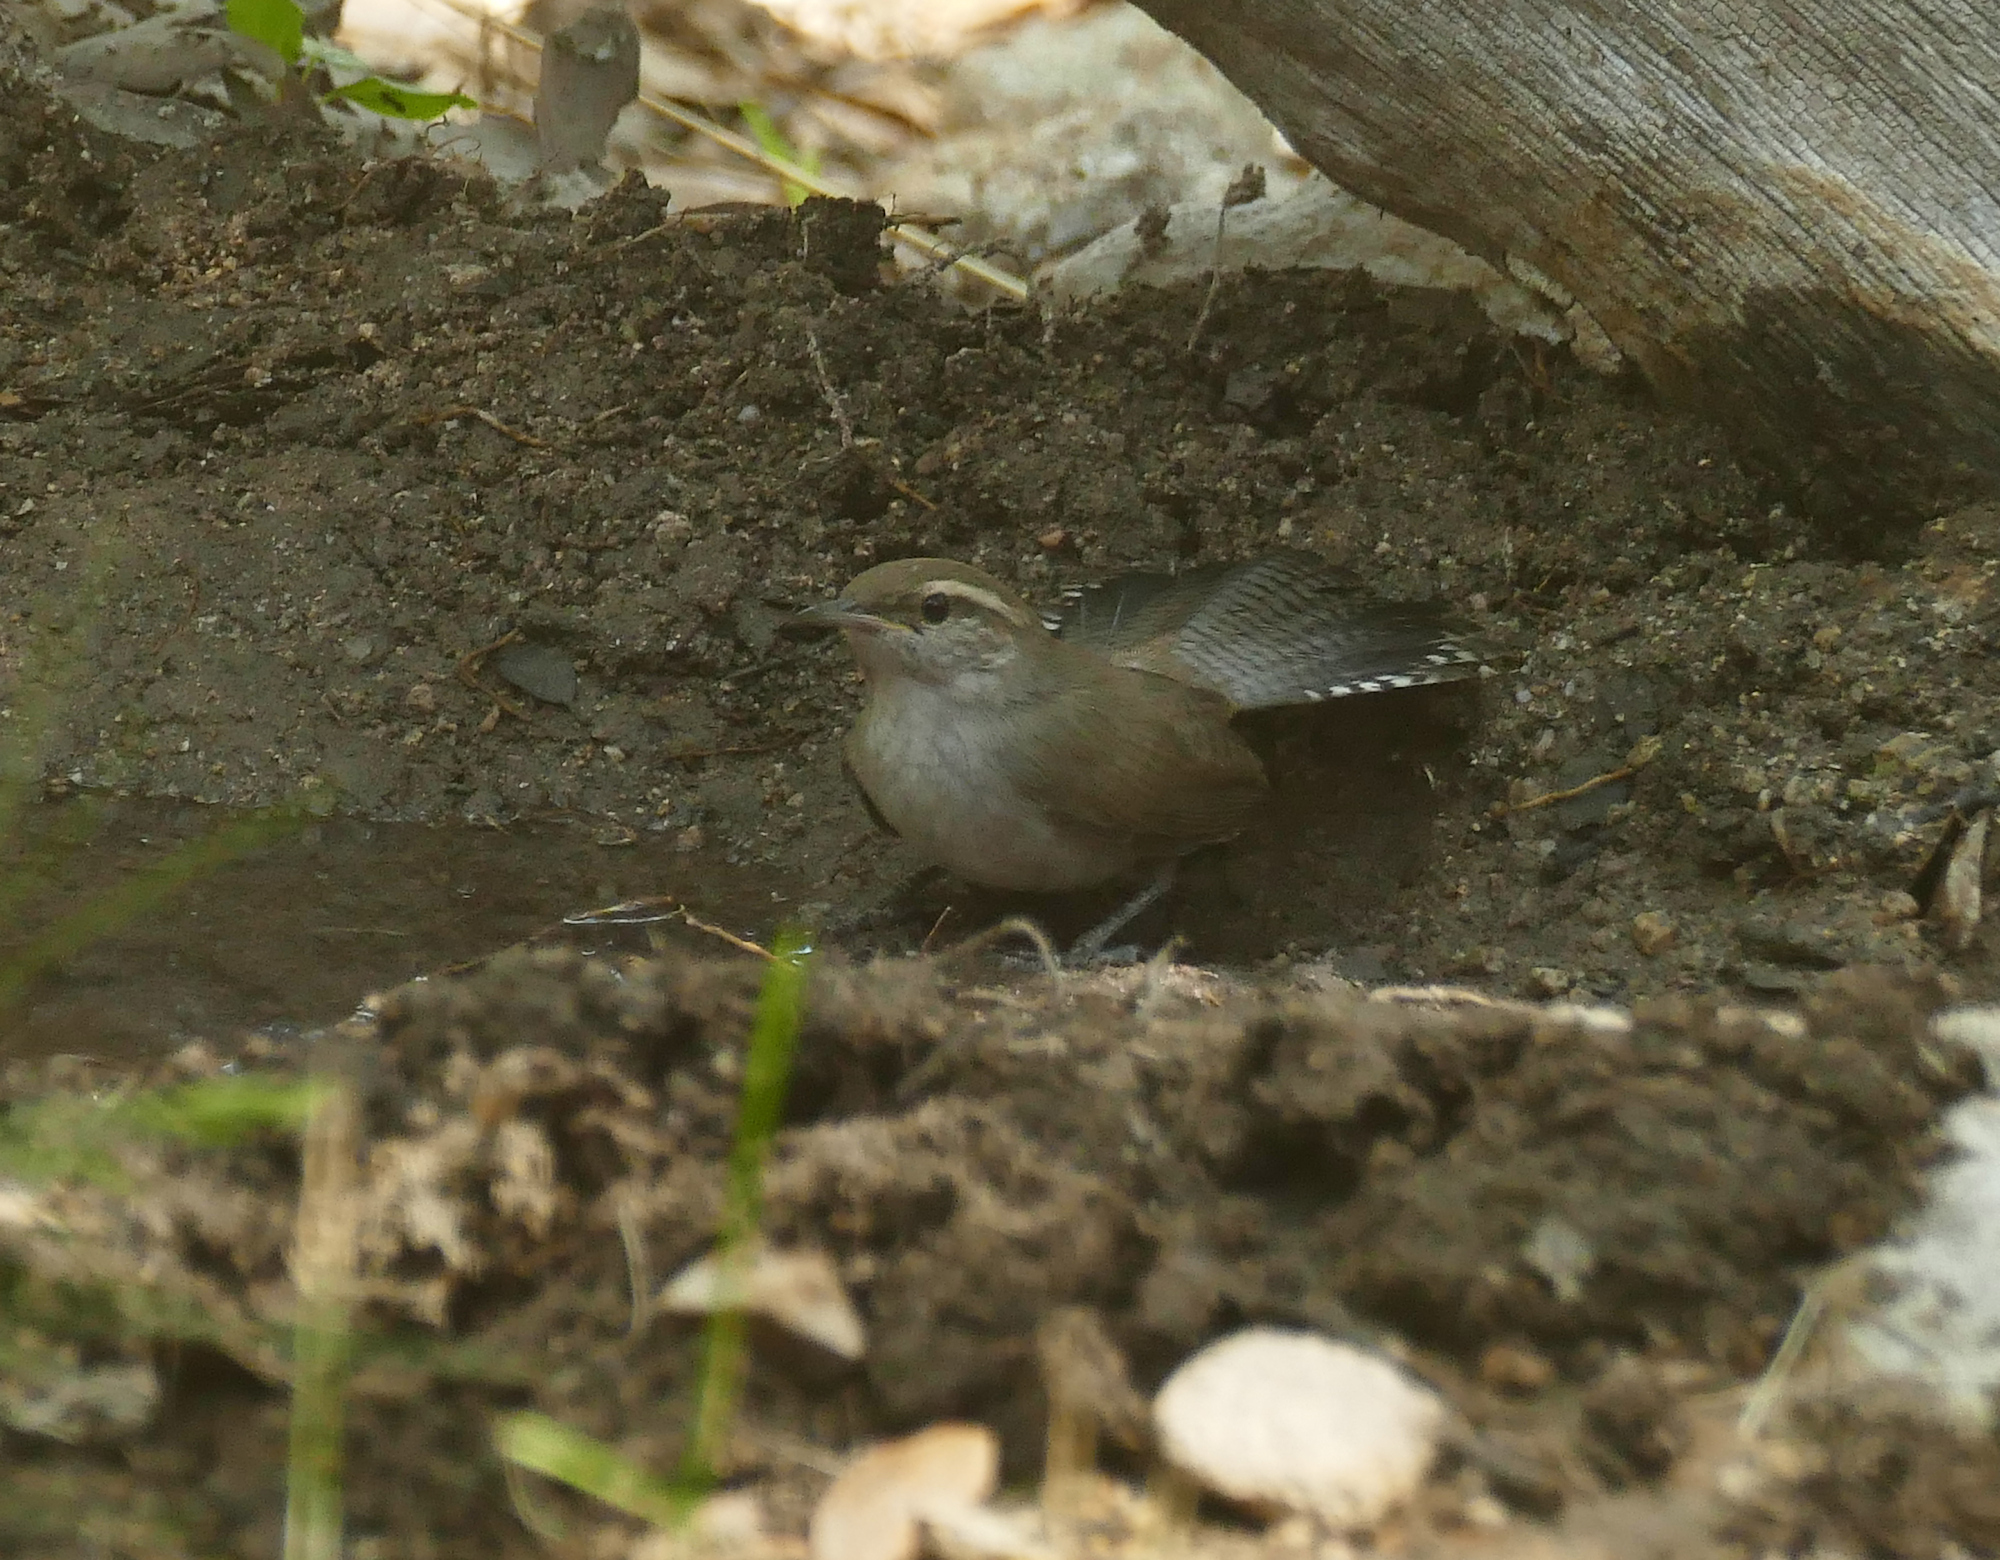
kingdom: Animalia
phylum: Chordata
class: Aves
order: Passeriformes
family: Troglodytidae
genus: Thryomanes
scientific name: Thryomanes bewickii
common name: Bewick's wren
